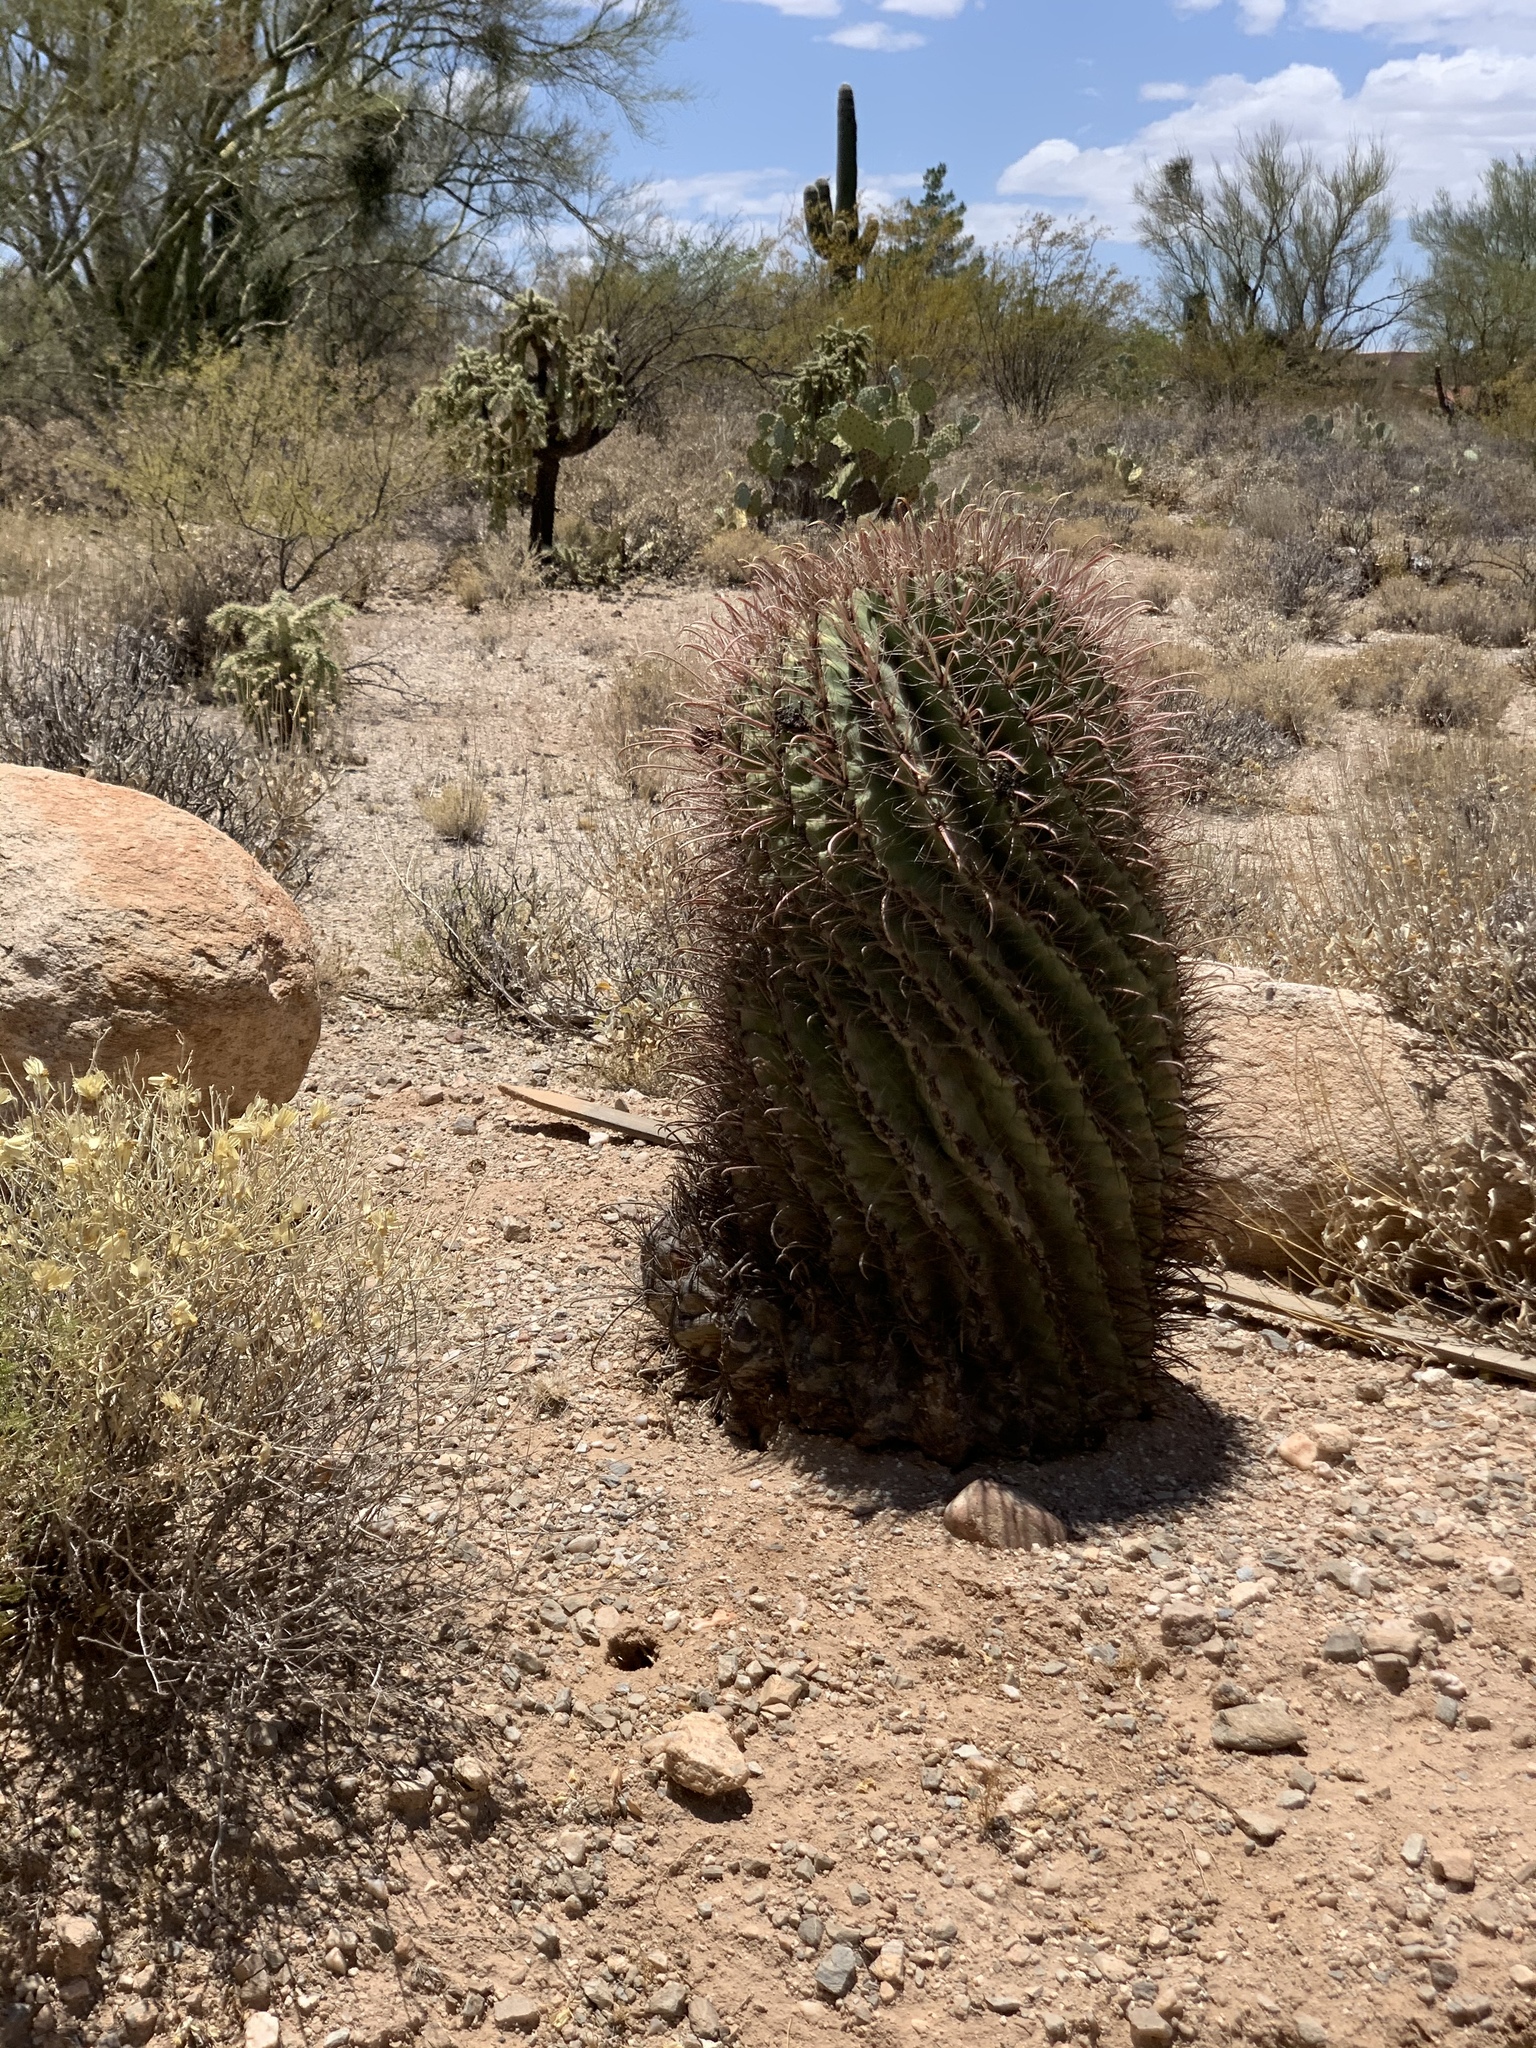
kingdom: Plantae
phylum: Tracheophyta
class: Magnoliopsida
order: Caryophyllales
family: Cactaceae
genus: Ferocactus
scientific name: Ferocactus wislizeni
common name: Candy barrel cactus
